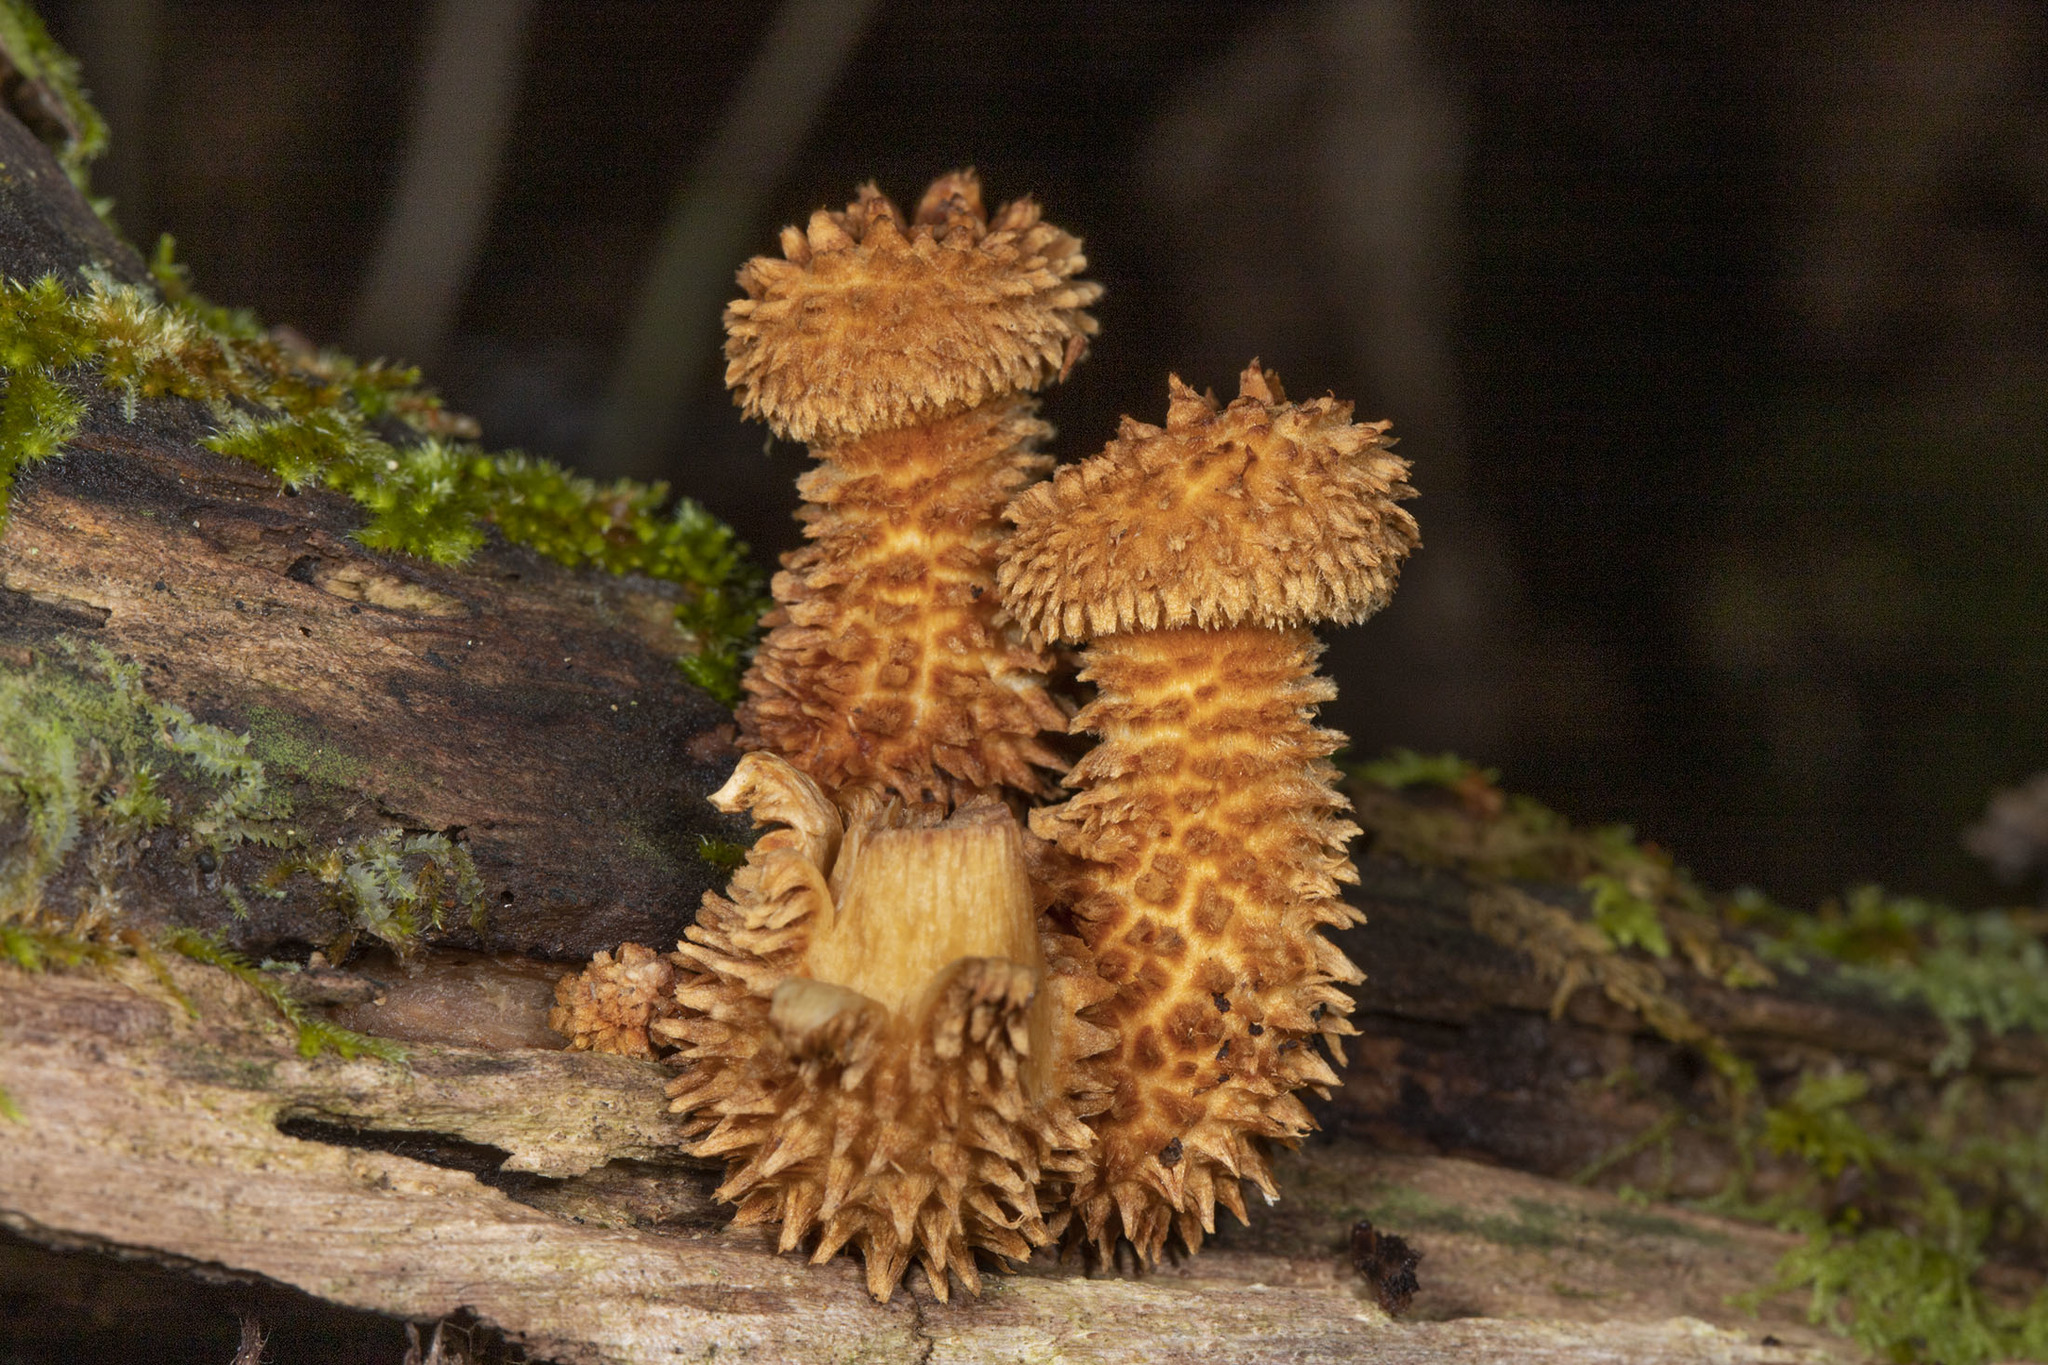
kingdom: Fungi
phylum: Basidiomycota
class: Agaricomycetes
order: Agaricales
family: Agaricaceae
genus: Leucopholiota
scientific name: Leucopholiota decorosa
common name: Decorated pholiota
